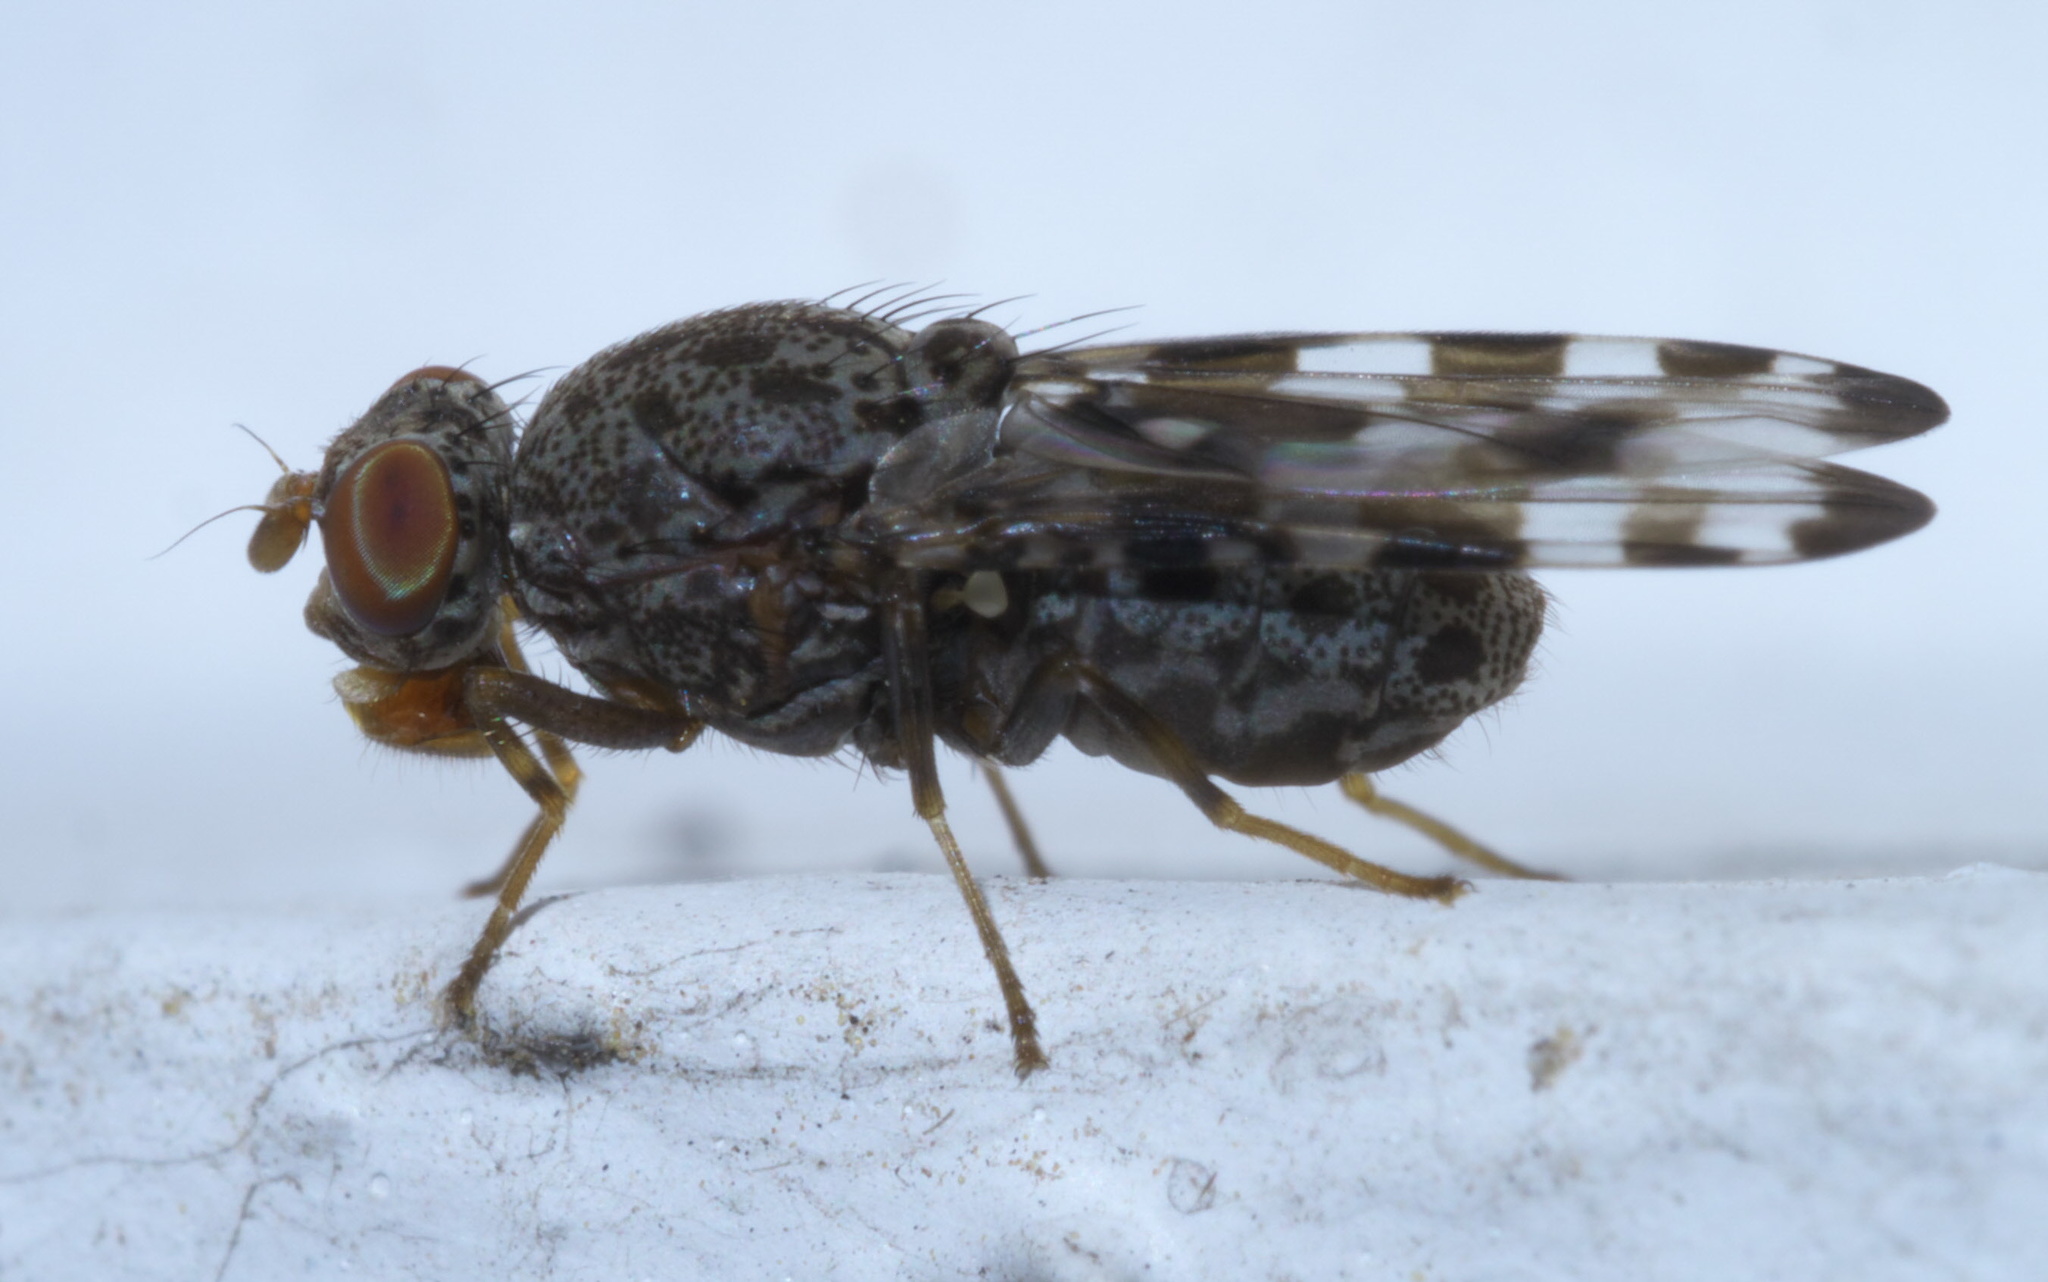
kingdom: Animalia
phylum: Arthropoda
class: Insecta
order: Diptera
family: Ulidiidae
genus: Pseudotephritis
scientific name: Pseudotephritis approximata
